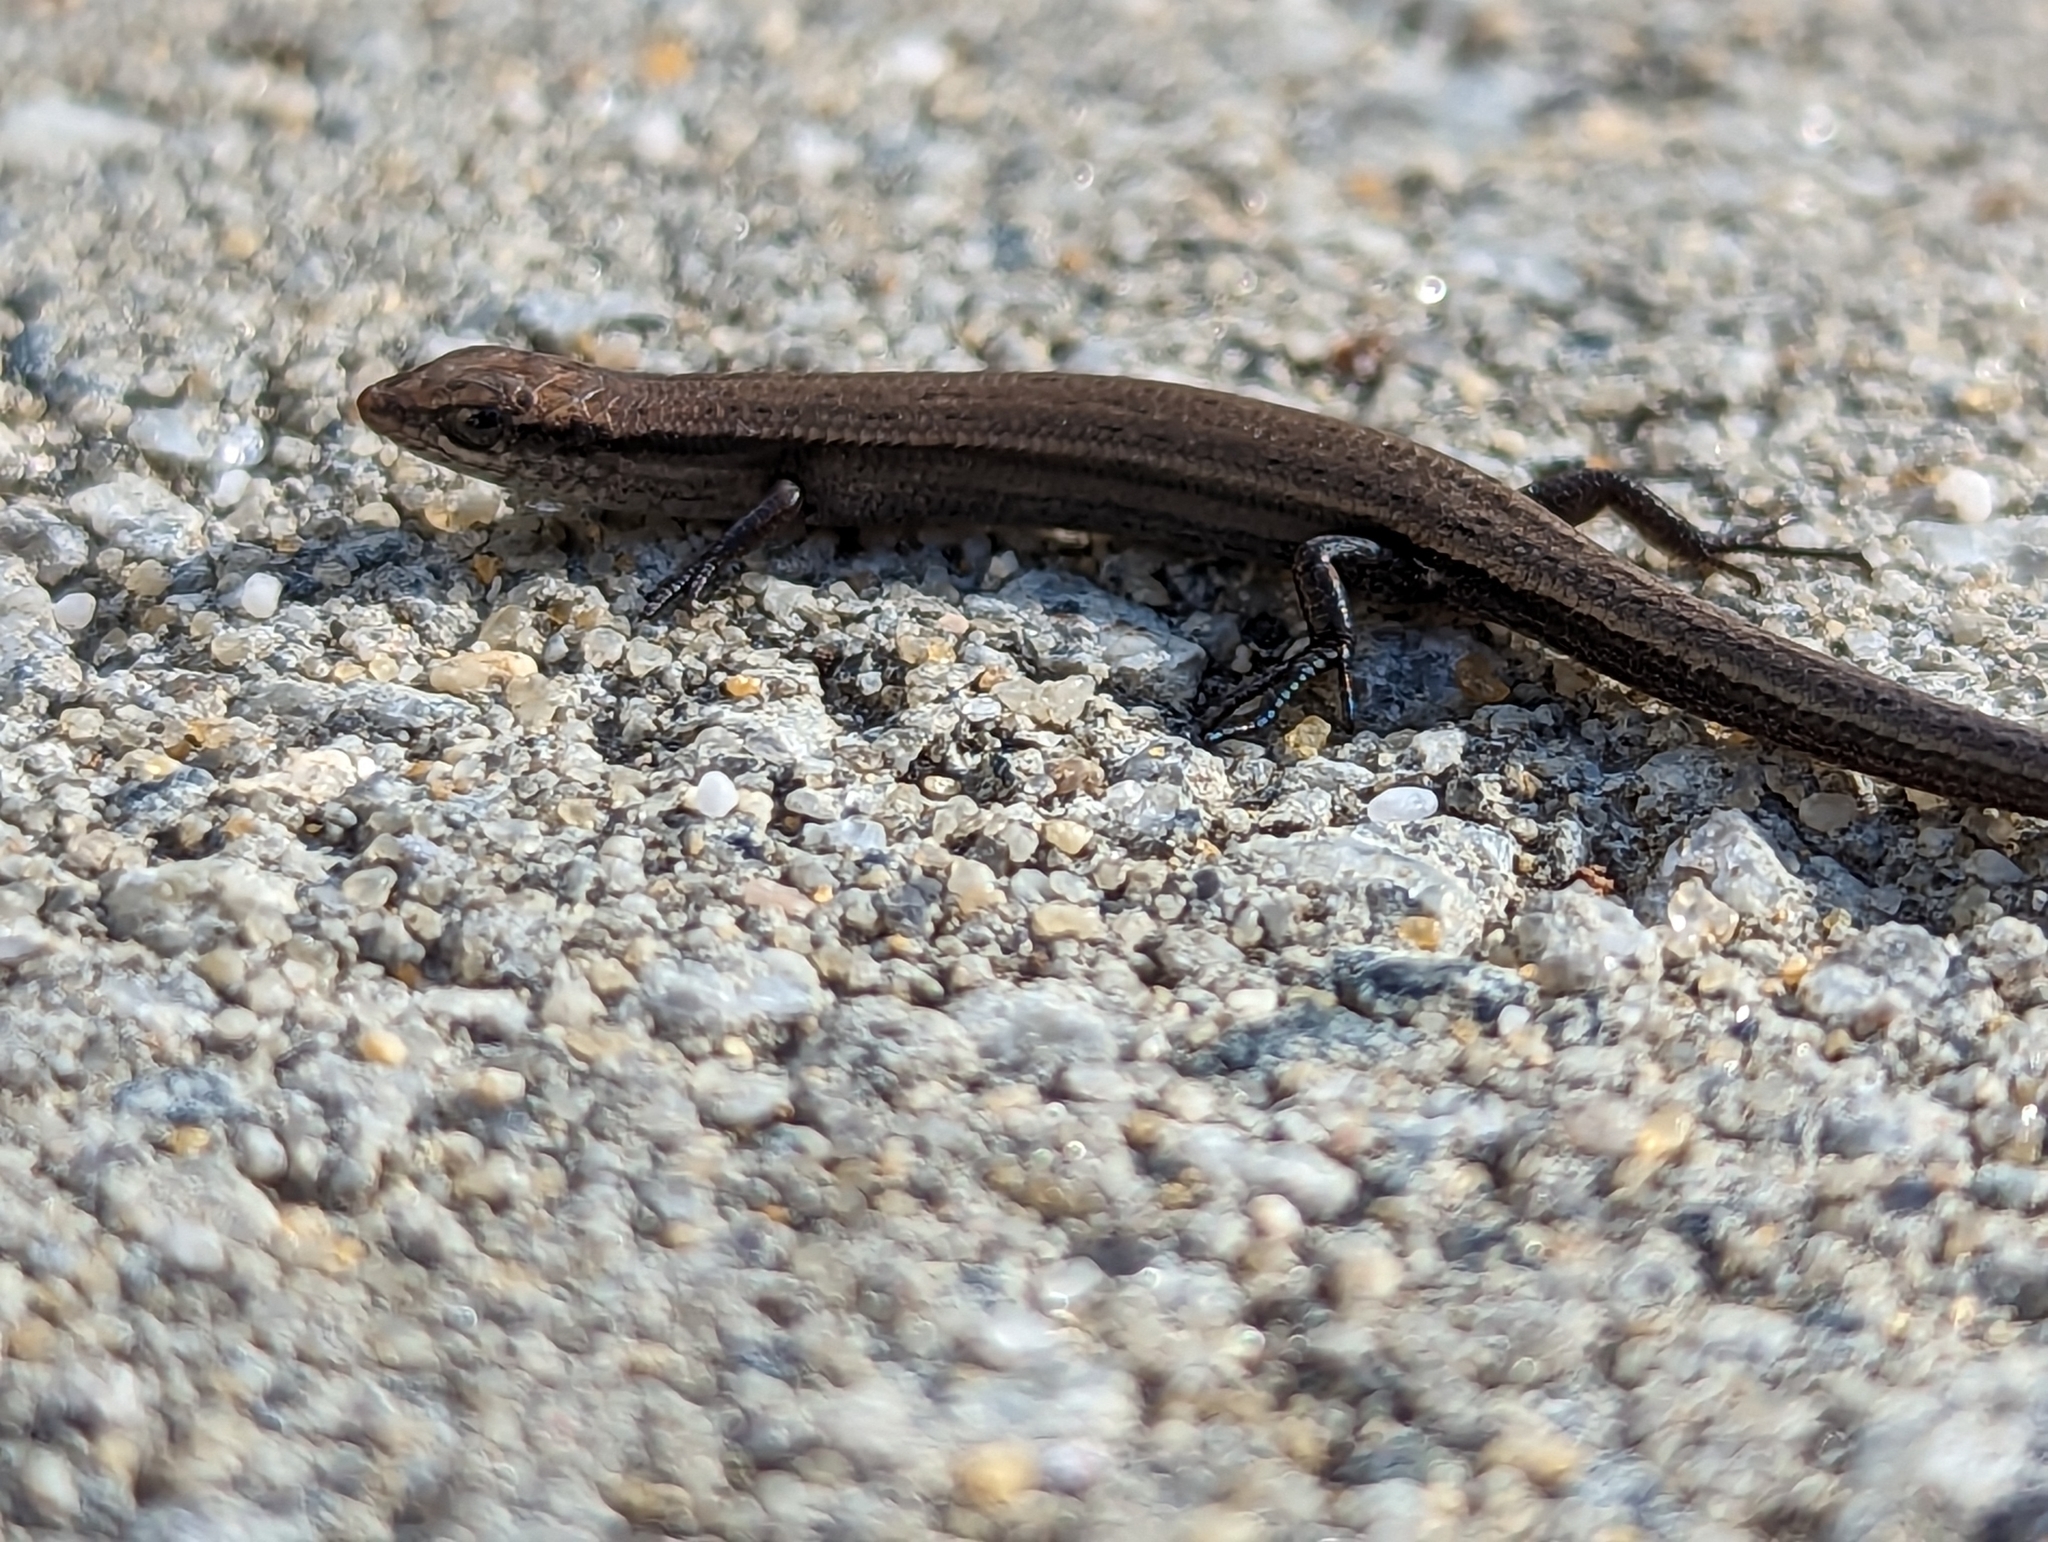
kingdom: Animalia
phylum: Chordata
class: Squamata
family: Scincidae
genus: Morethia
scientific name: Morethia obscura
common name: Shrubland morethia skink
